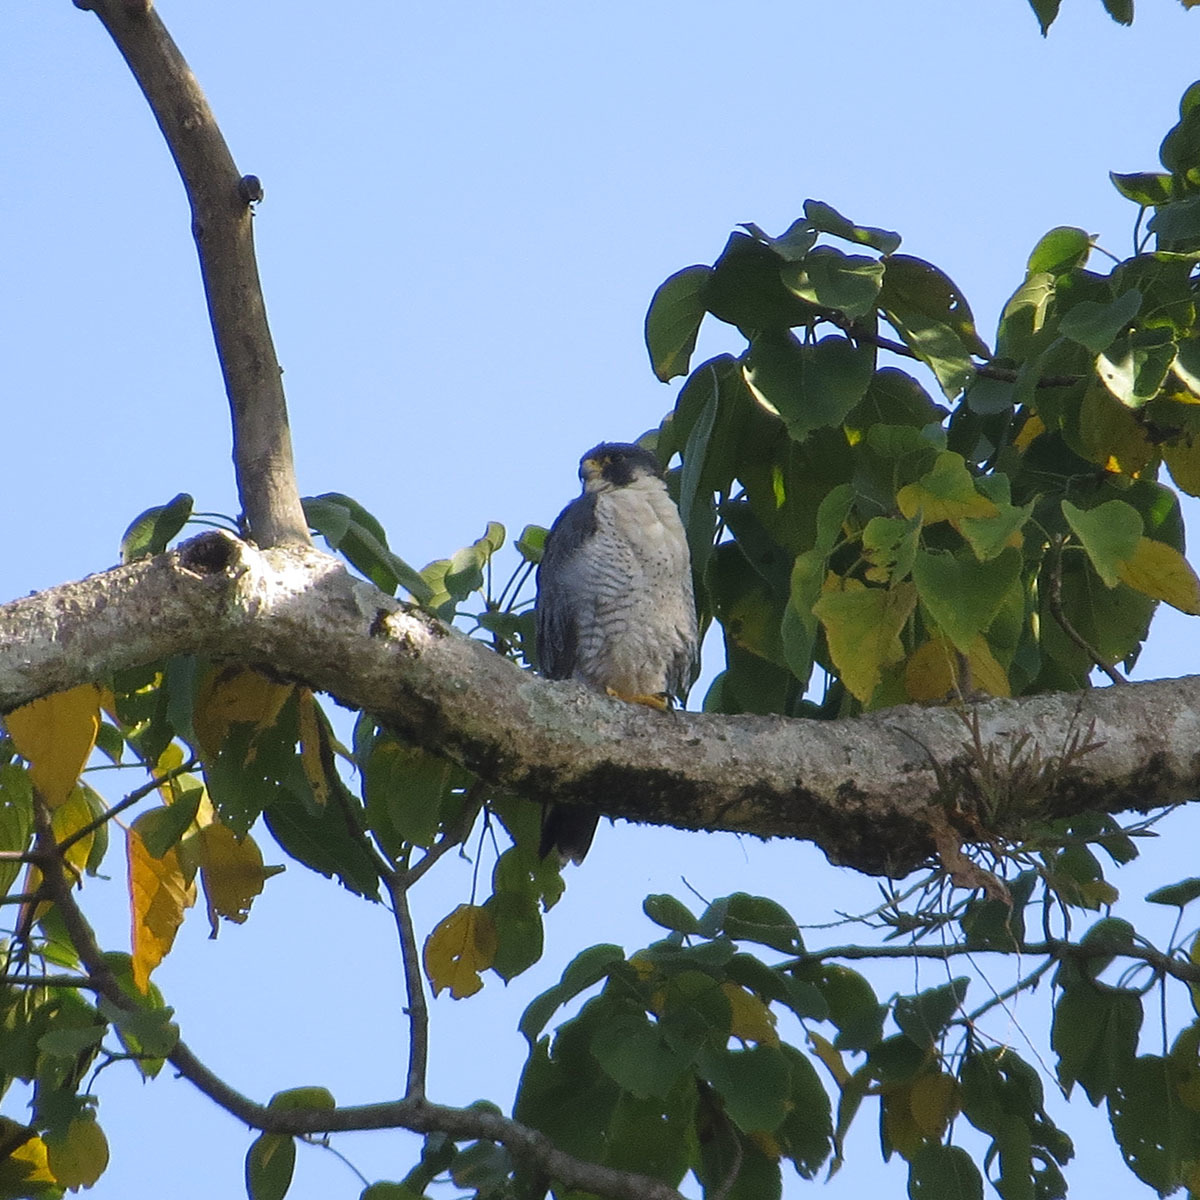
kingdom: Animalia
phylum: Chordata
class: Aves
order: Falconiformes
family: Falconidae
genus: Falco
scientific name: Falco peregrinus
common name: Peregrine falcon
